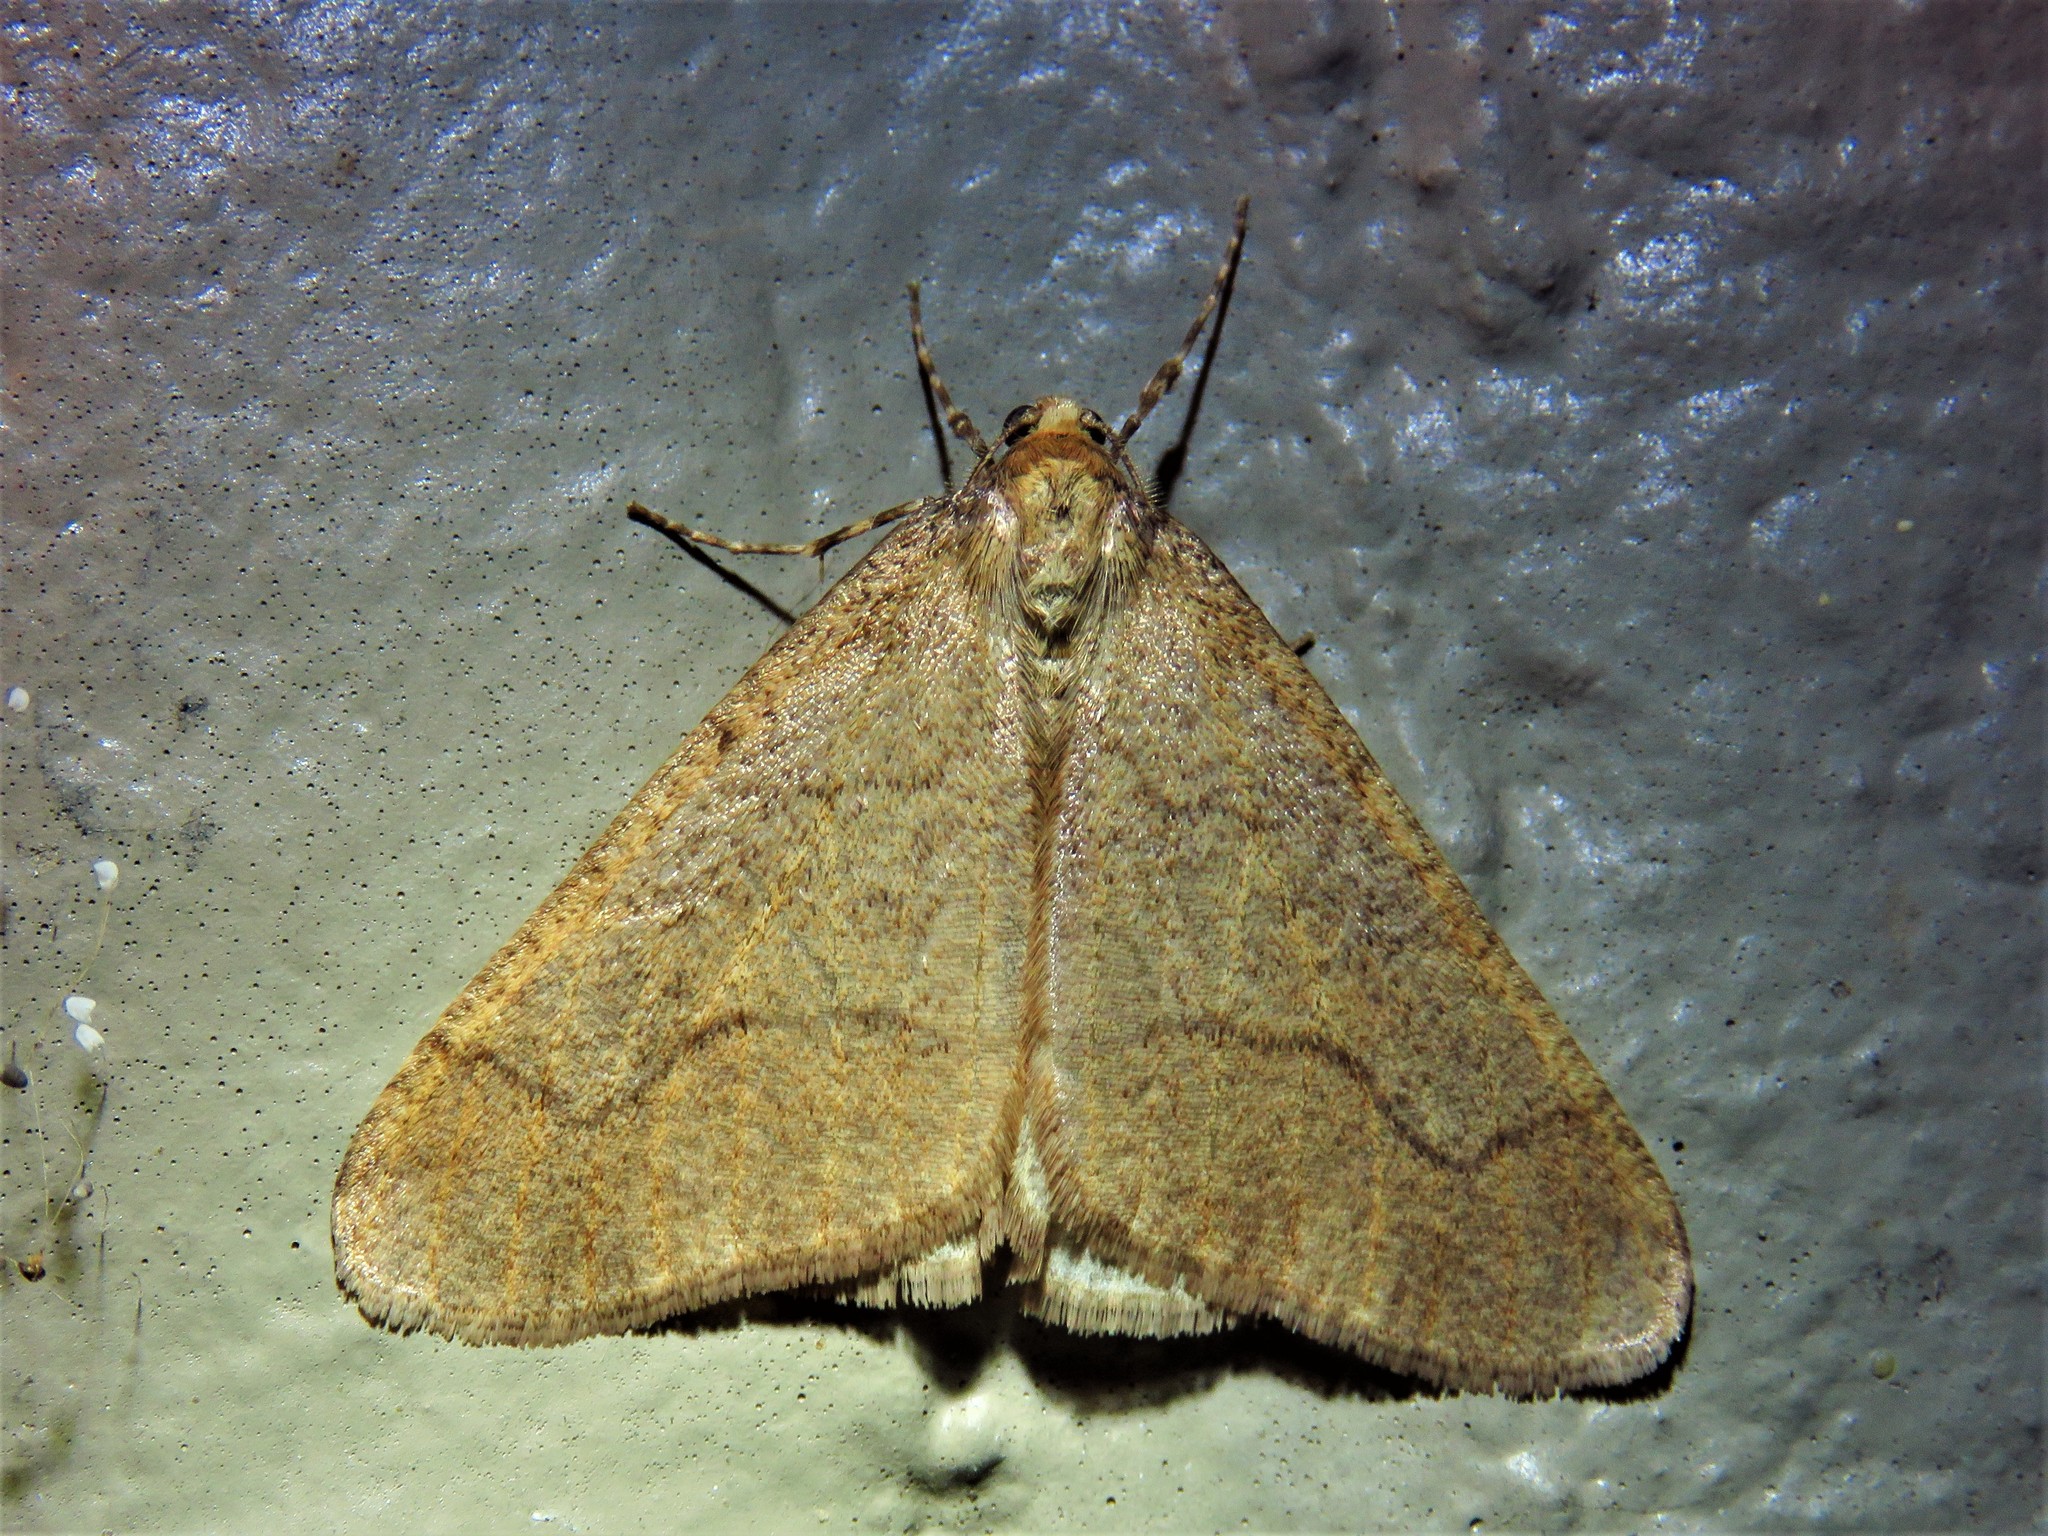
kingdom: Animalia
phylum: Arthropoda
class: Insecta
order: Lepidoptera
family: Geometridae
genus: Erannis
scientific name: Erannis tiliaria
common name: Linden looper
